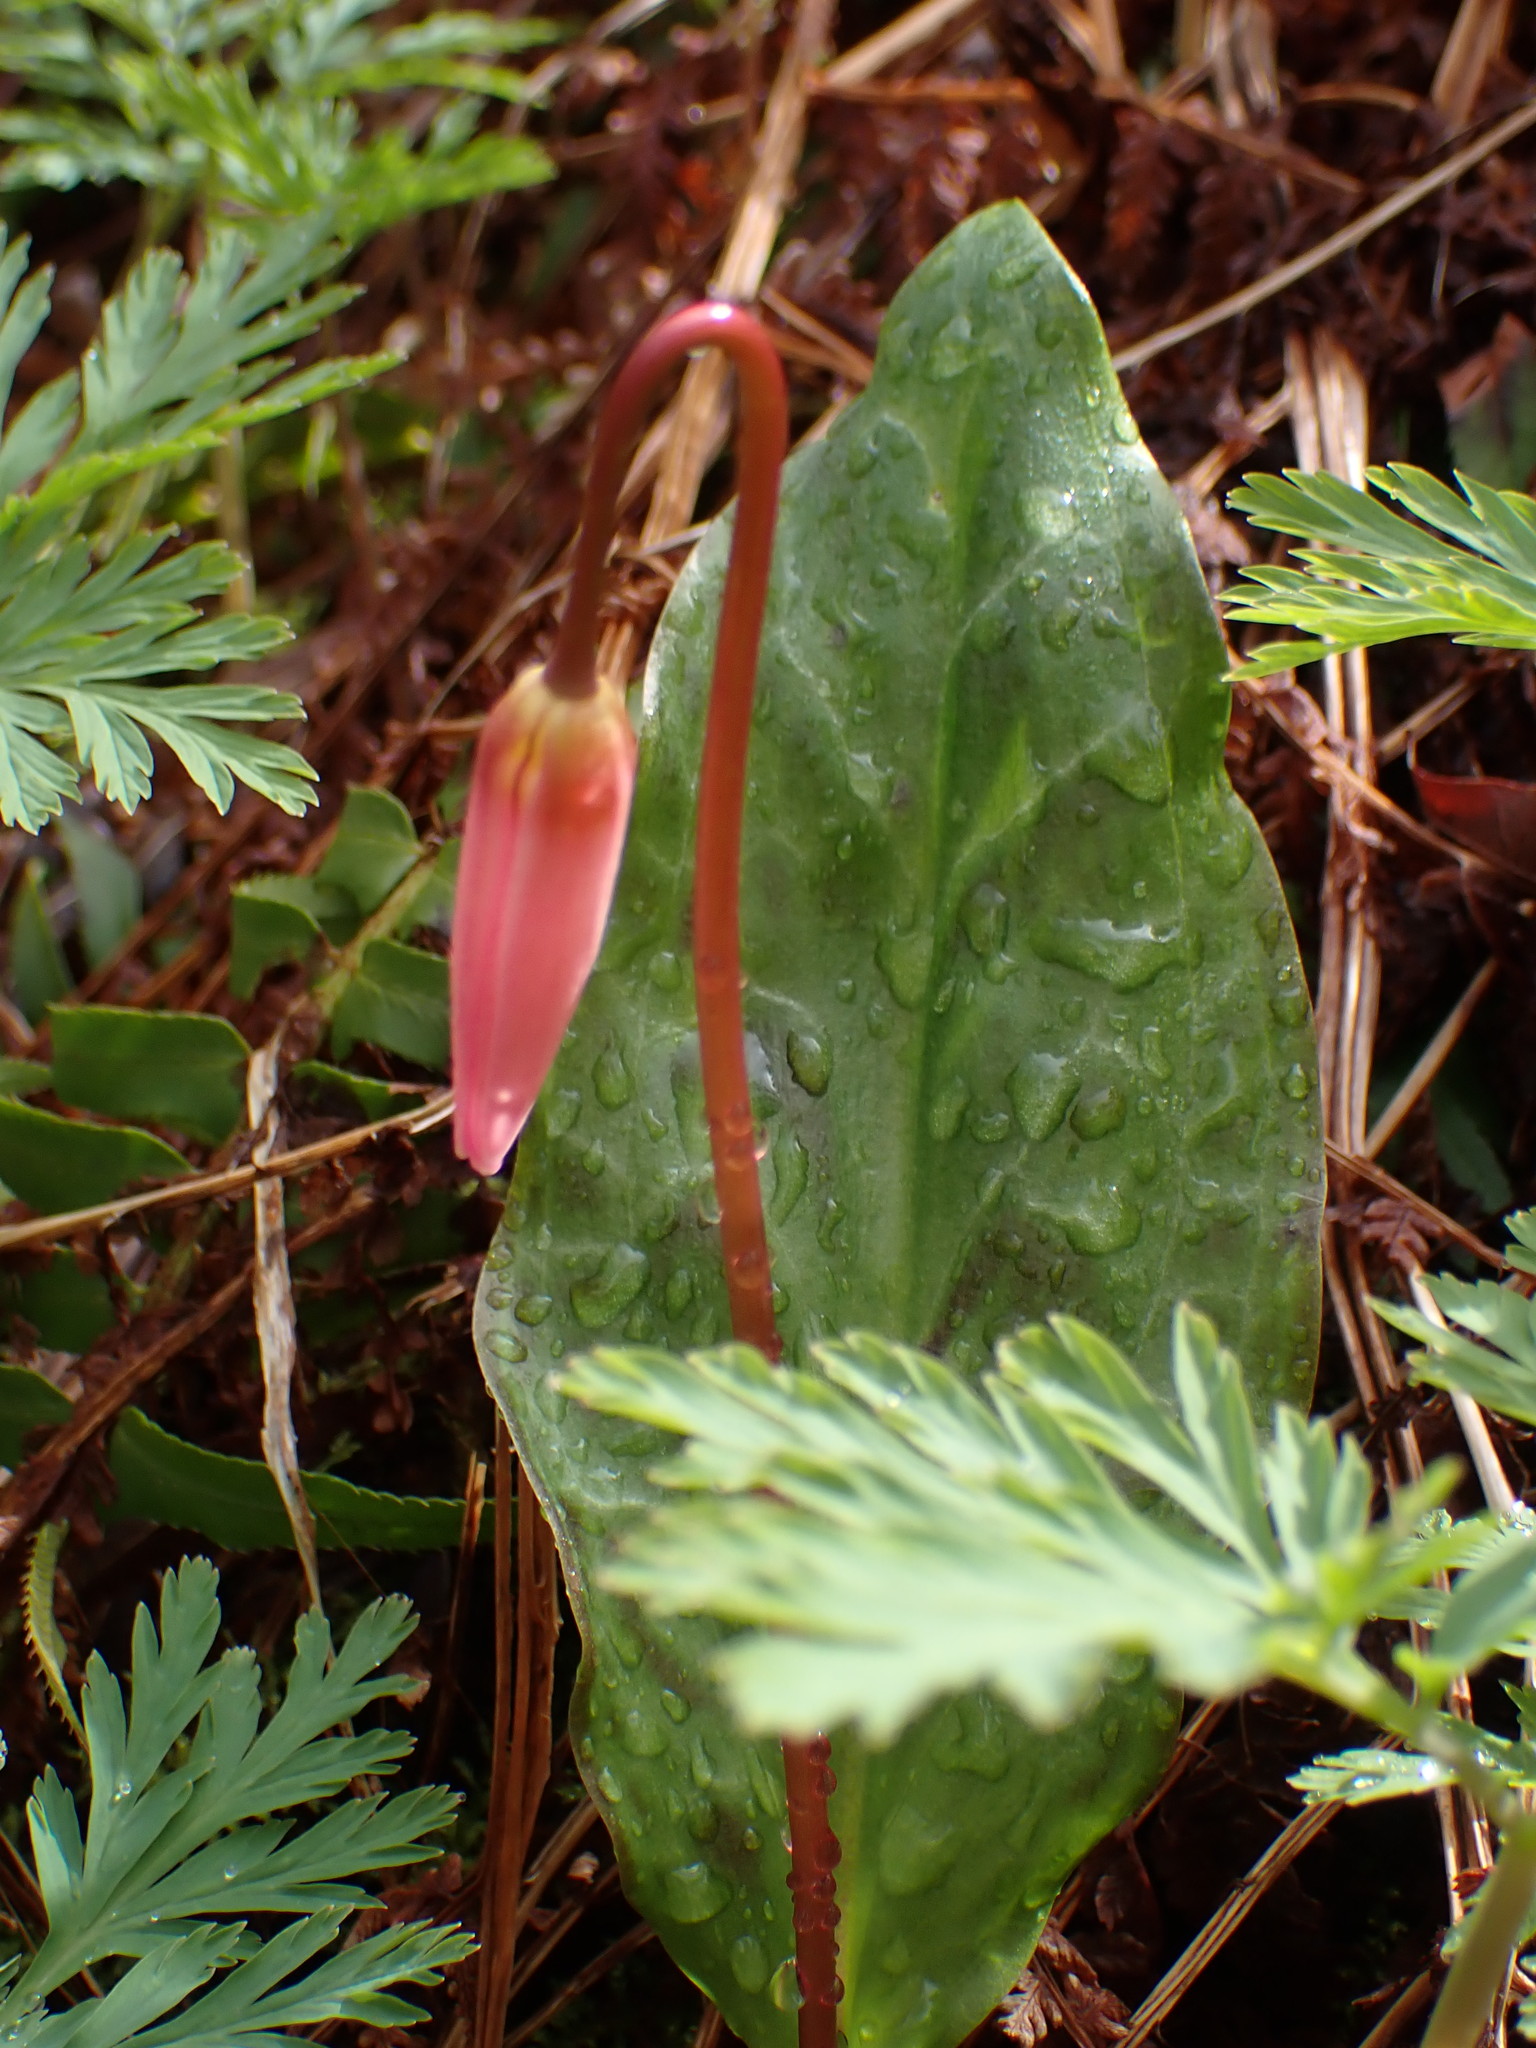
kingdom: Plantae
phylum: Tracheophyta
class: Liliopsida
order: Liliales
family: Liliaceae
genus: Erythronium
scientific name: Erythronium revolutum
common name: Pink fawn-lily
